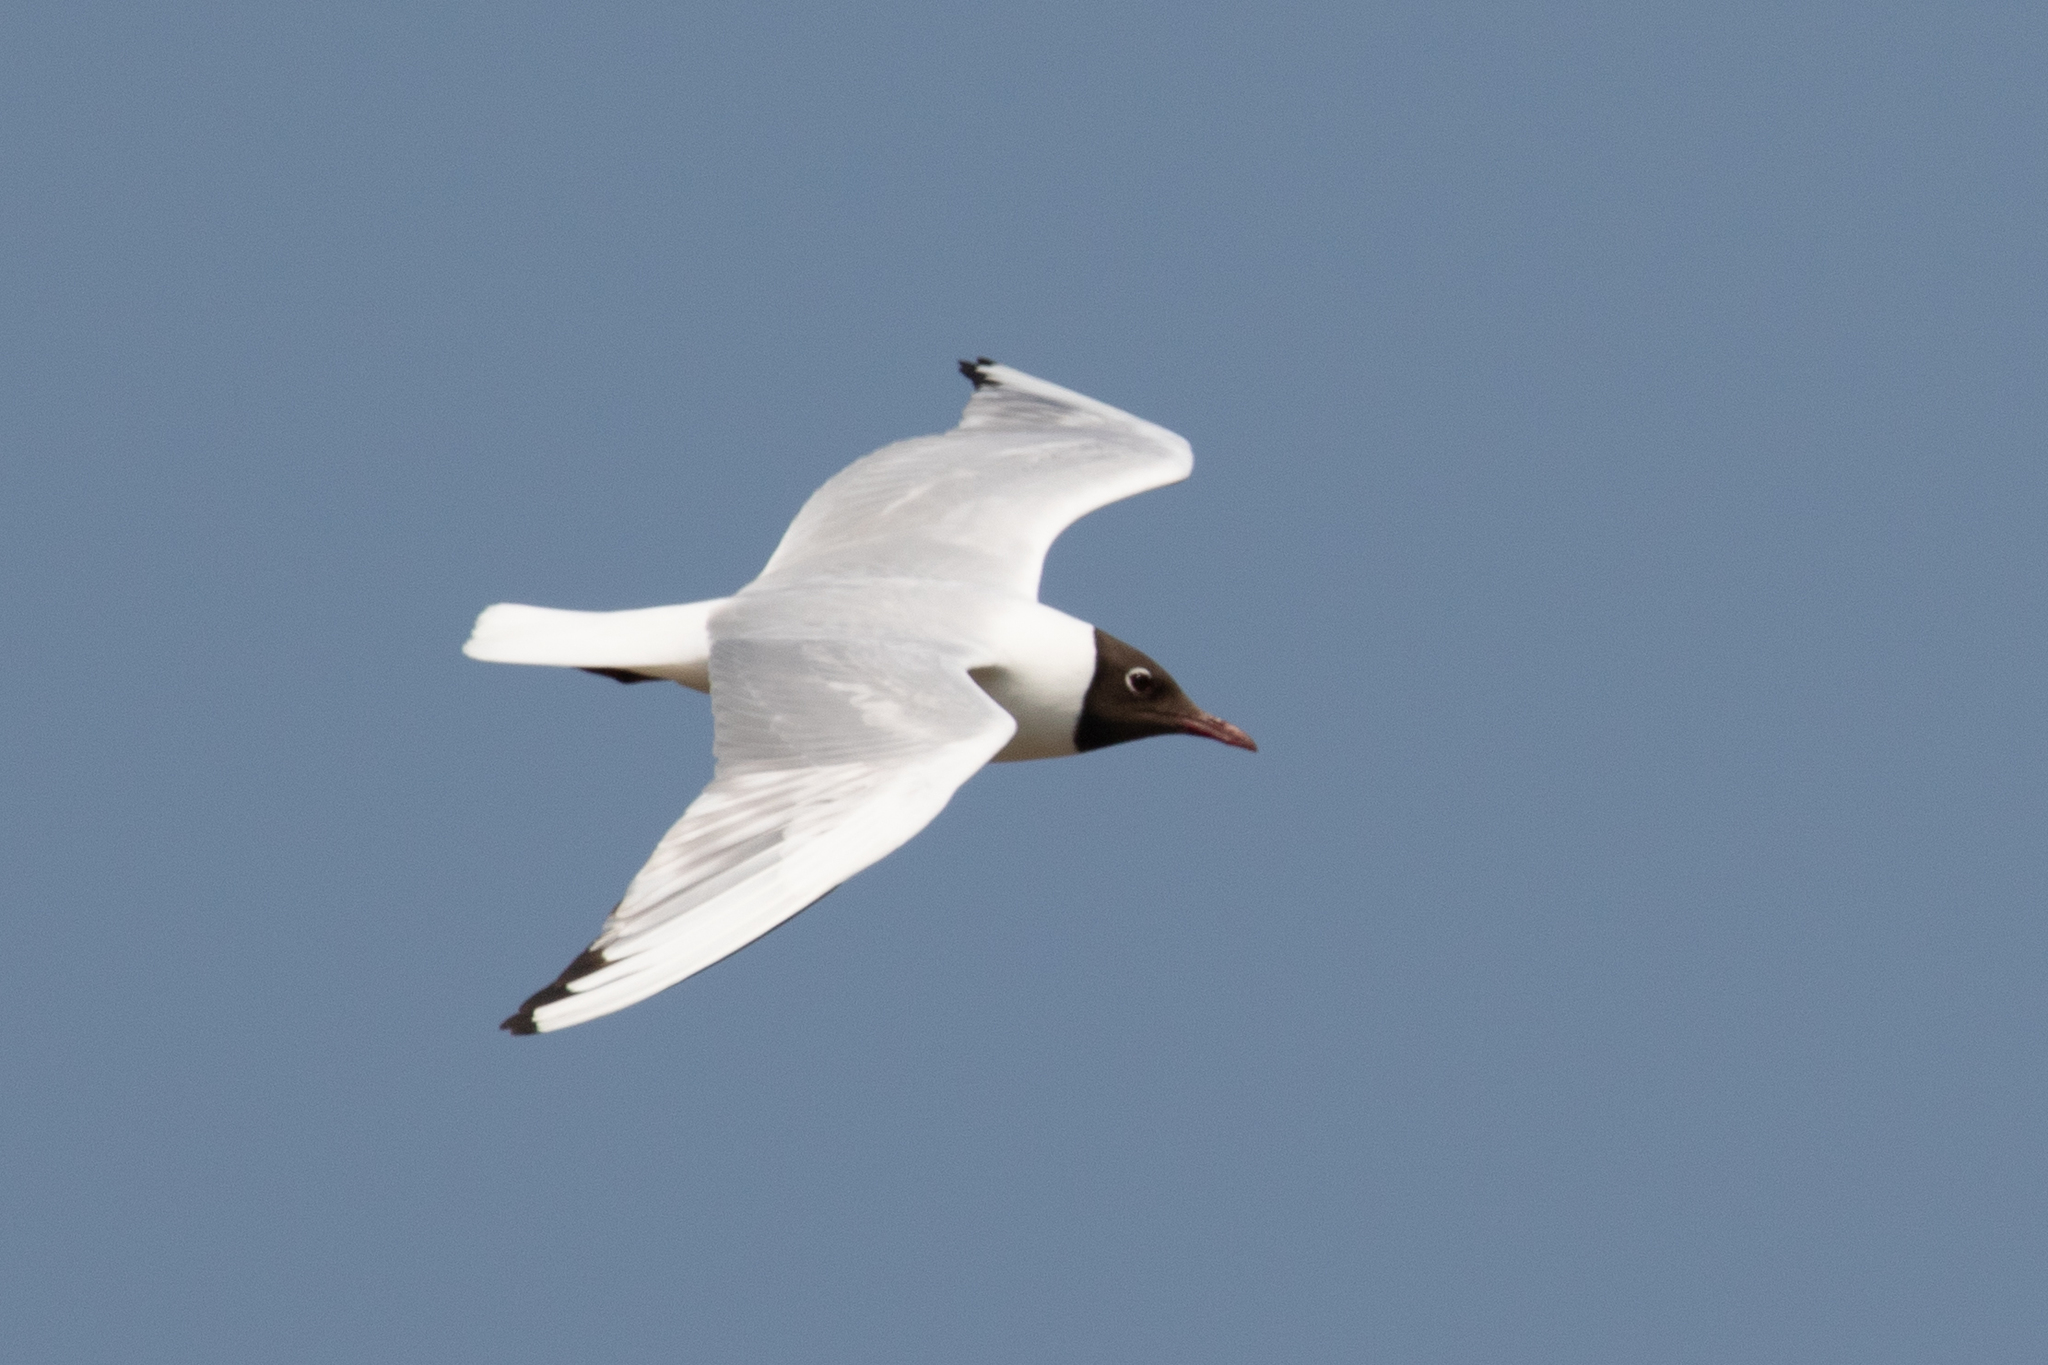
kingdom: Animalia
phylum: Chordata
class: Aves
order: Charadriiformes
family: Laridae
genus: Chroicocephalus
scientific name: Chroicocephalus ridibundus
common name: Black-headed gull
